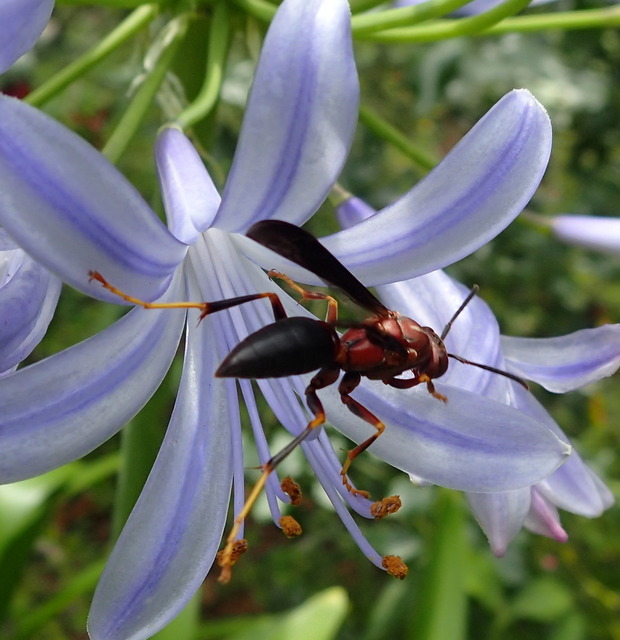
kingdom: Animalia
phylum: Arthropoda
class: Insecta
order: Hymenoptera
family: Eumenidae
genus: Polistes
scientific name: Polistes metricus
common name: Metric paper wasp
